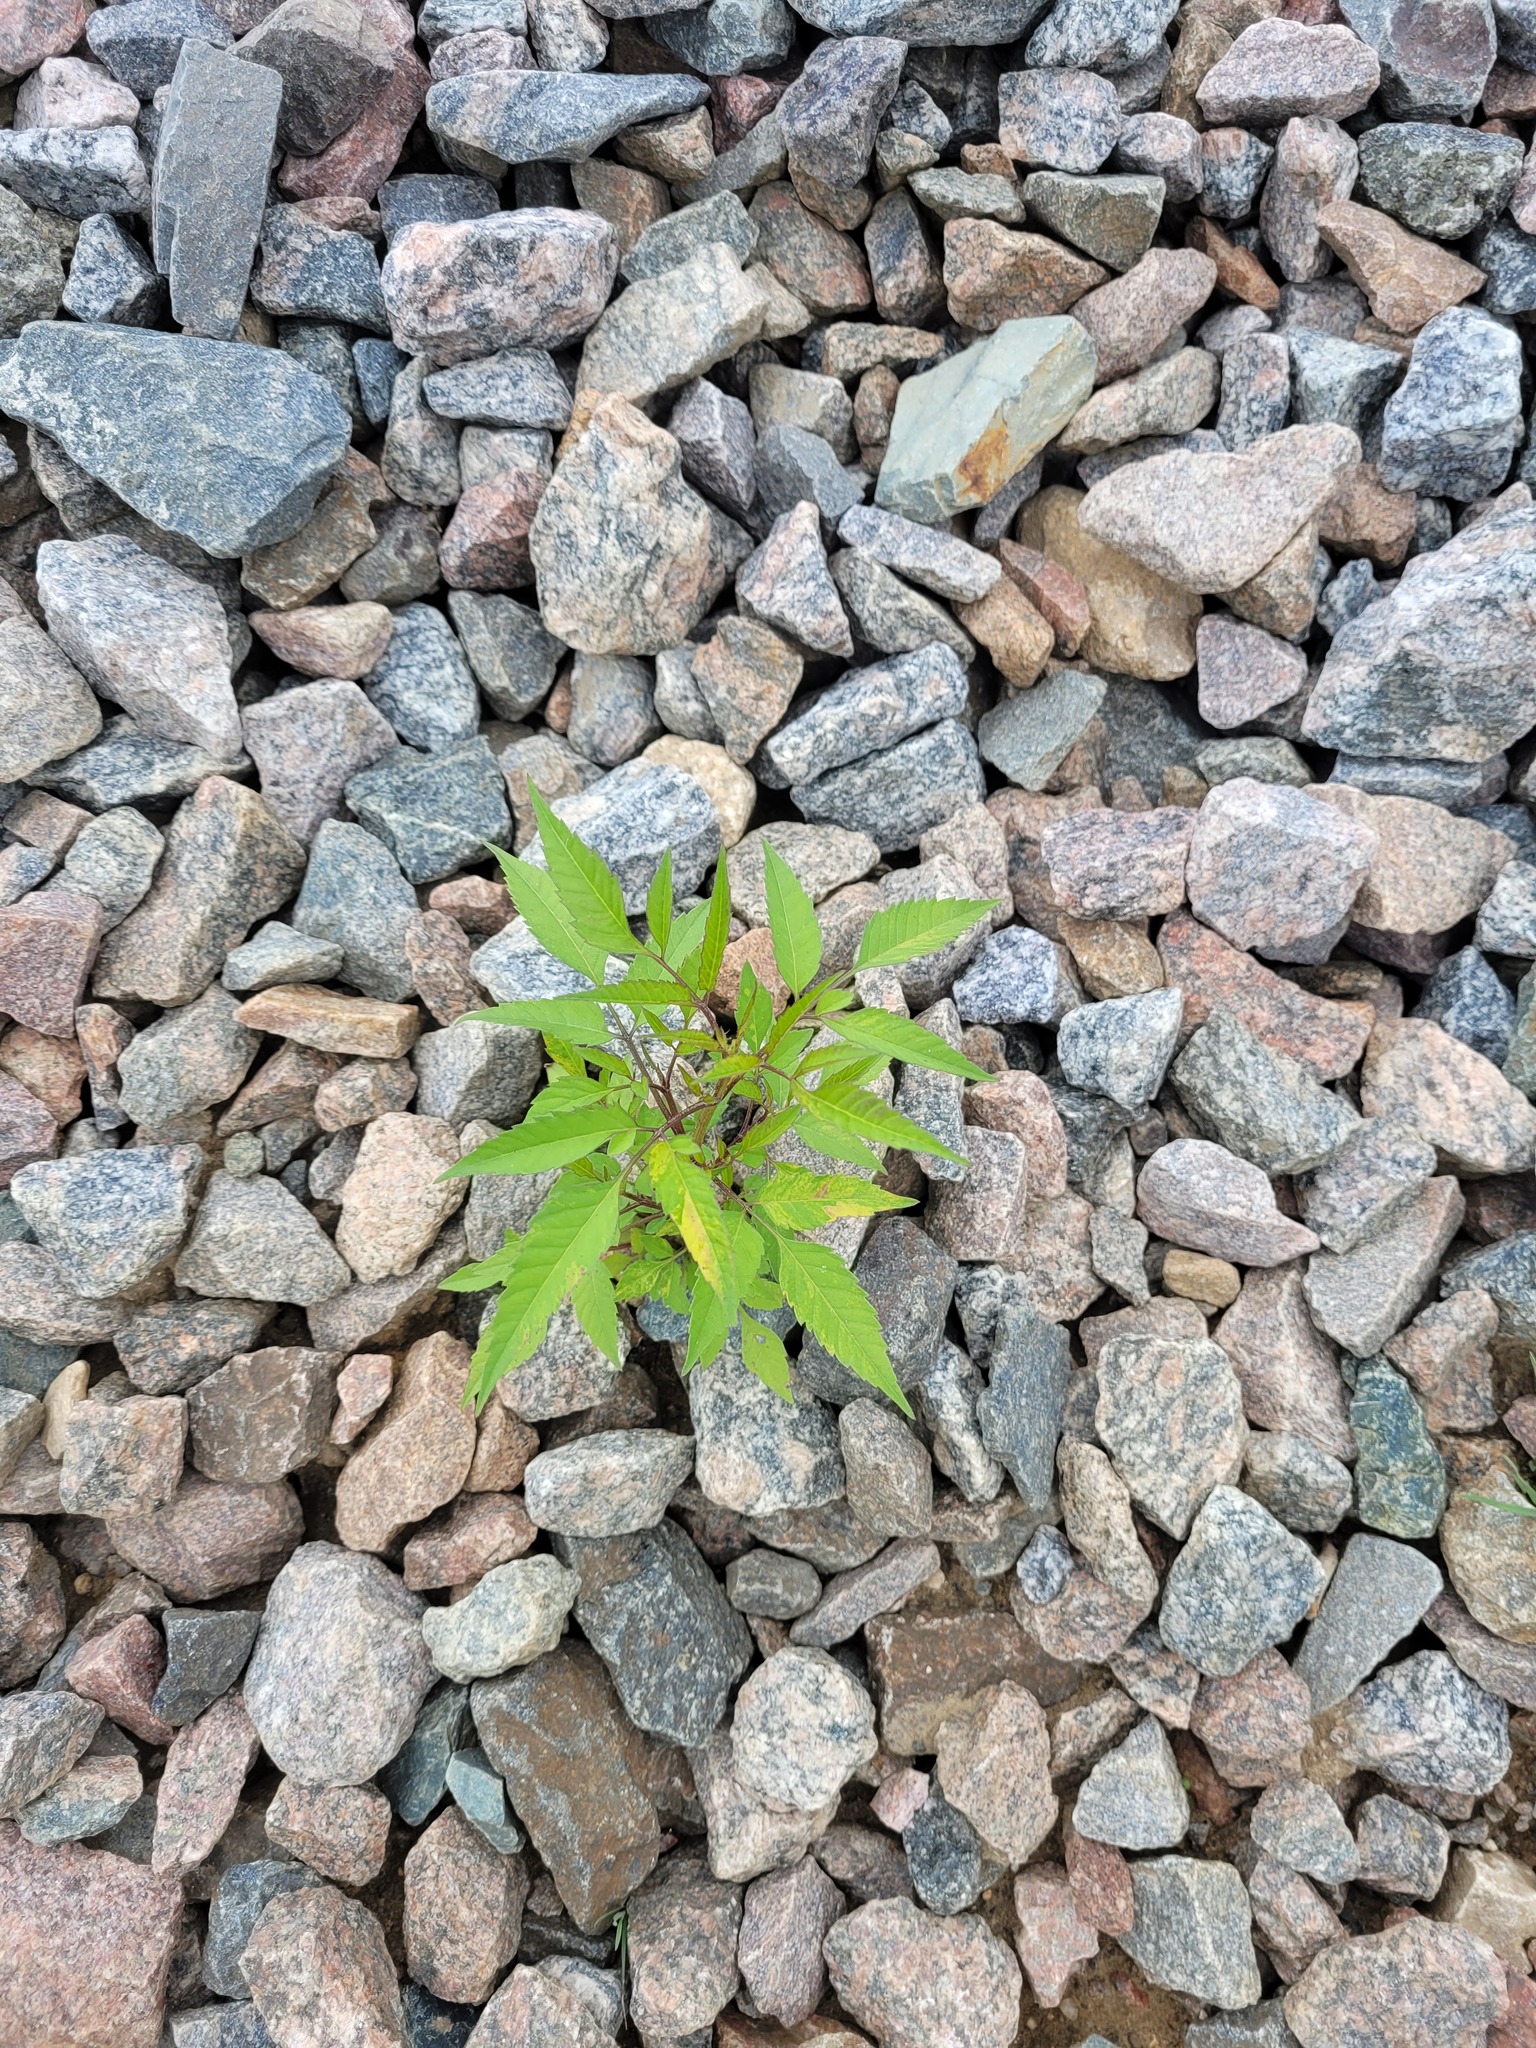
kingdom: Plantae
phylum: Tracheophyta
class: Magnoliopsida
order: Asterales
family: Asteraceae
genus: Bidens
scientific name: Bidens frondosa
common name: Beggarticks
